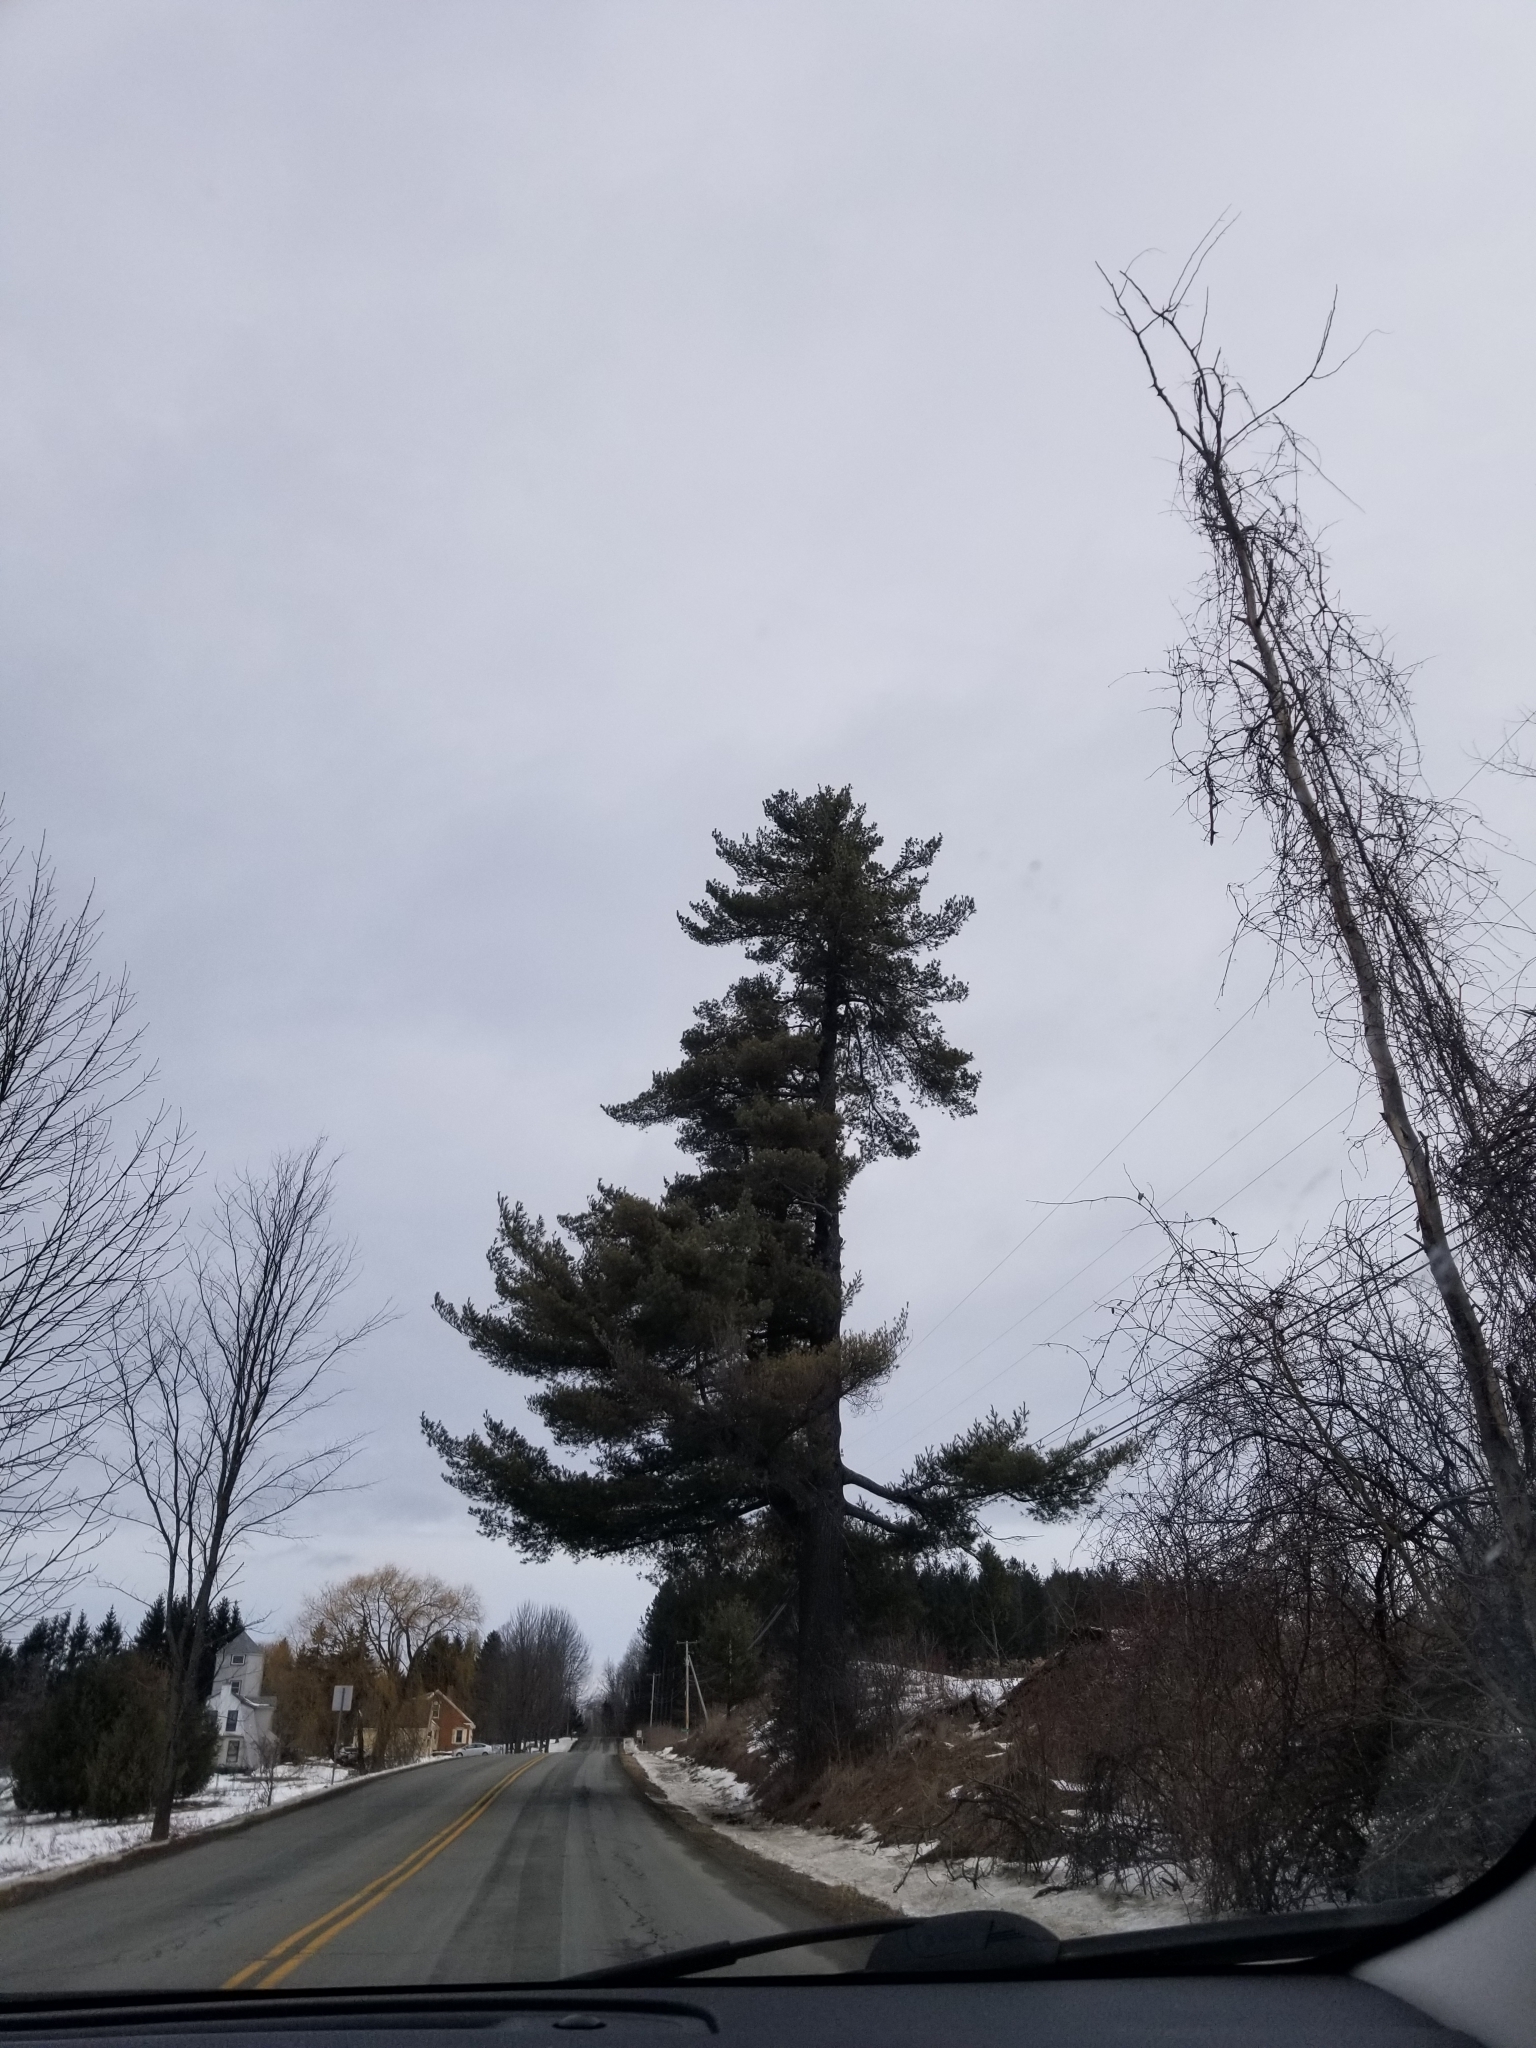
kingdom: Plantae
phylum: Tracheophyta
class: Pinopsida
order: Pinales
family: Pinaceae
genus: Pinus
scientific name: Pinus strobus
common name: Weymouth pine
